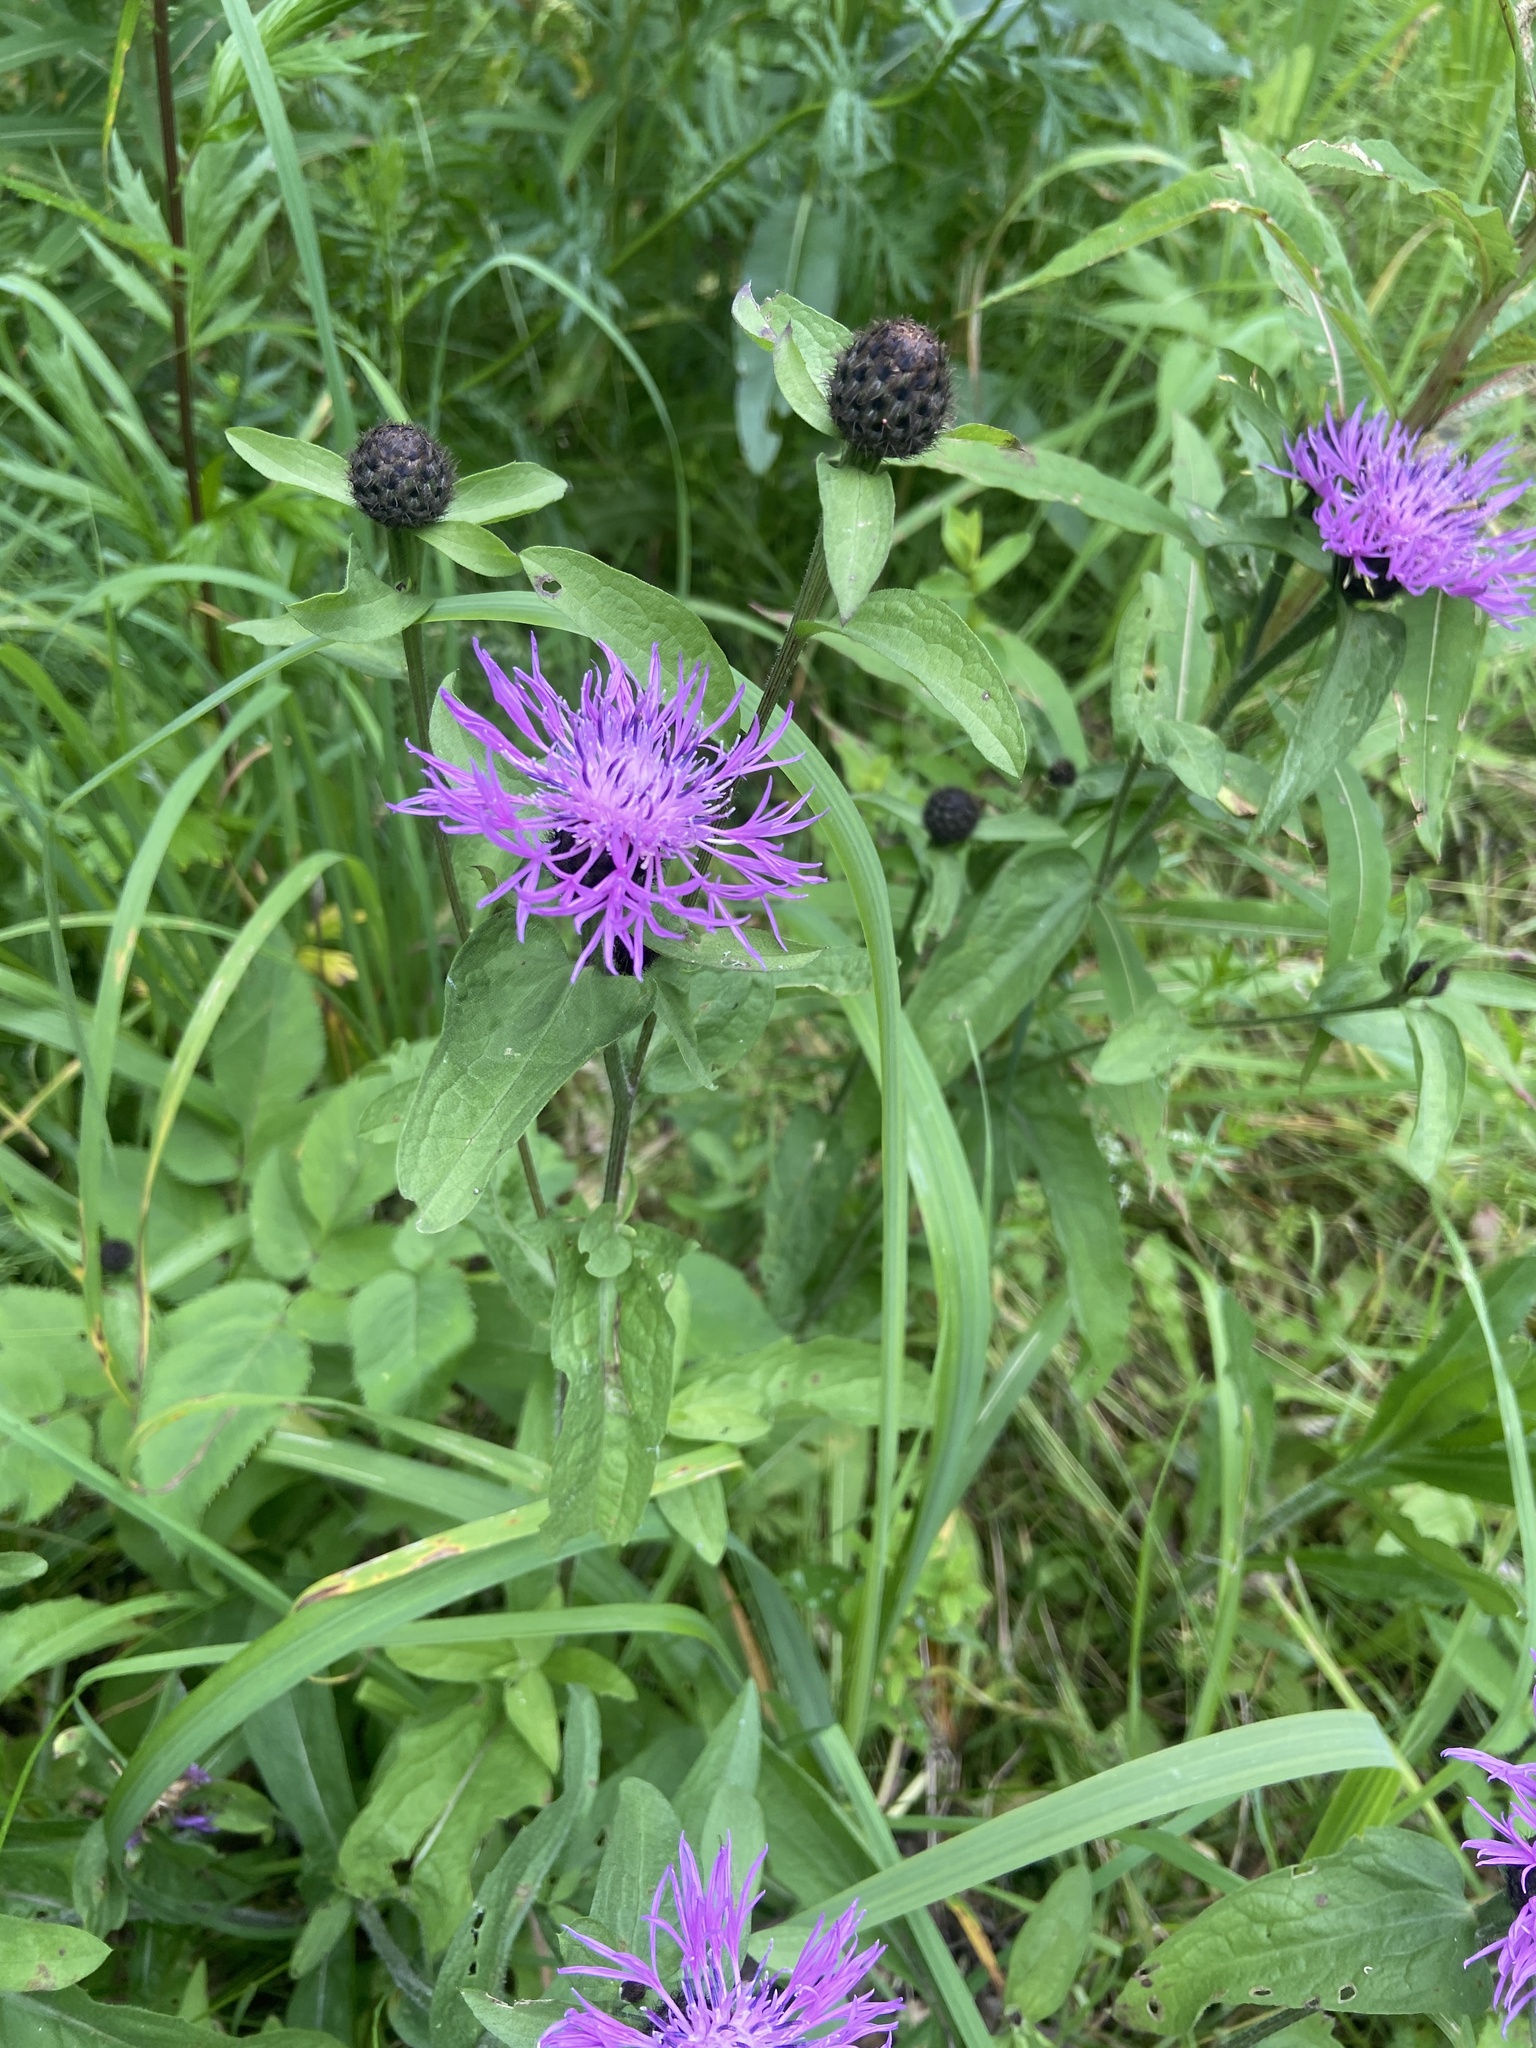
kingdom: Plantae
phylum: Tracheophyta
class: Magnoliopsida
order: Asterales
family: Asteraceae
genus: Centaurea
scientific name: Centaurea phrygia
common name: Wig knapweed
